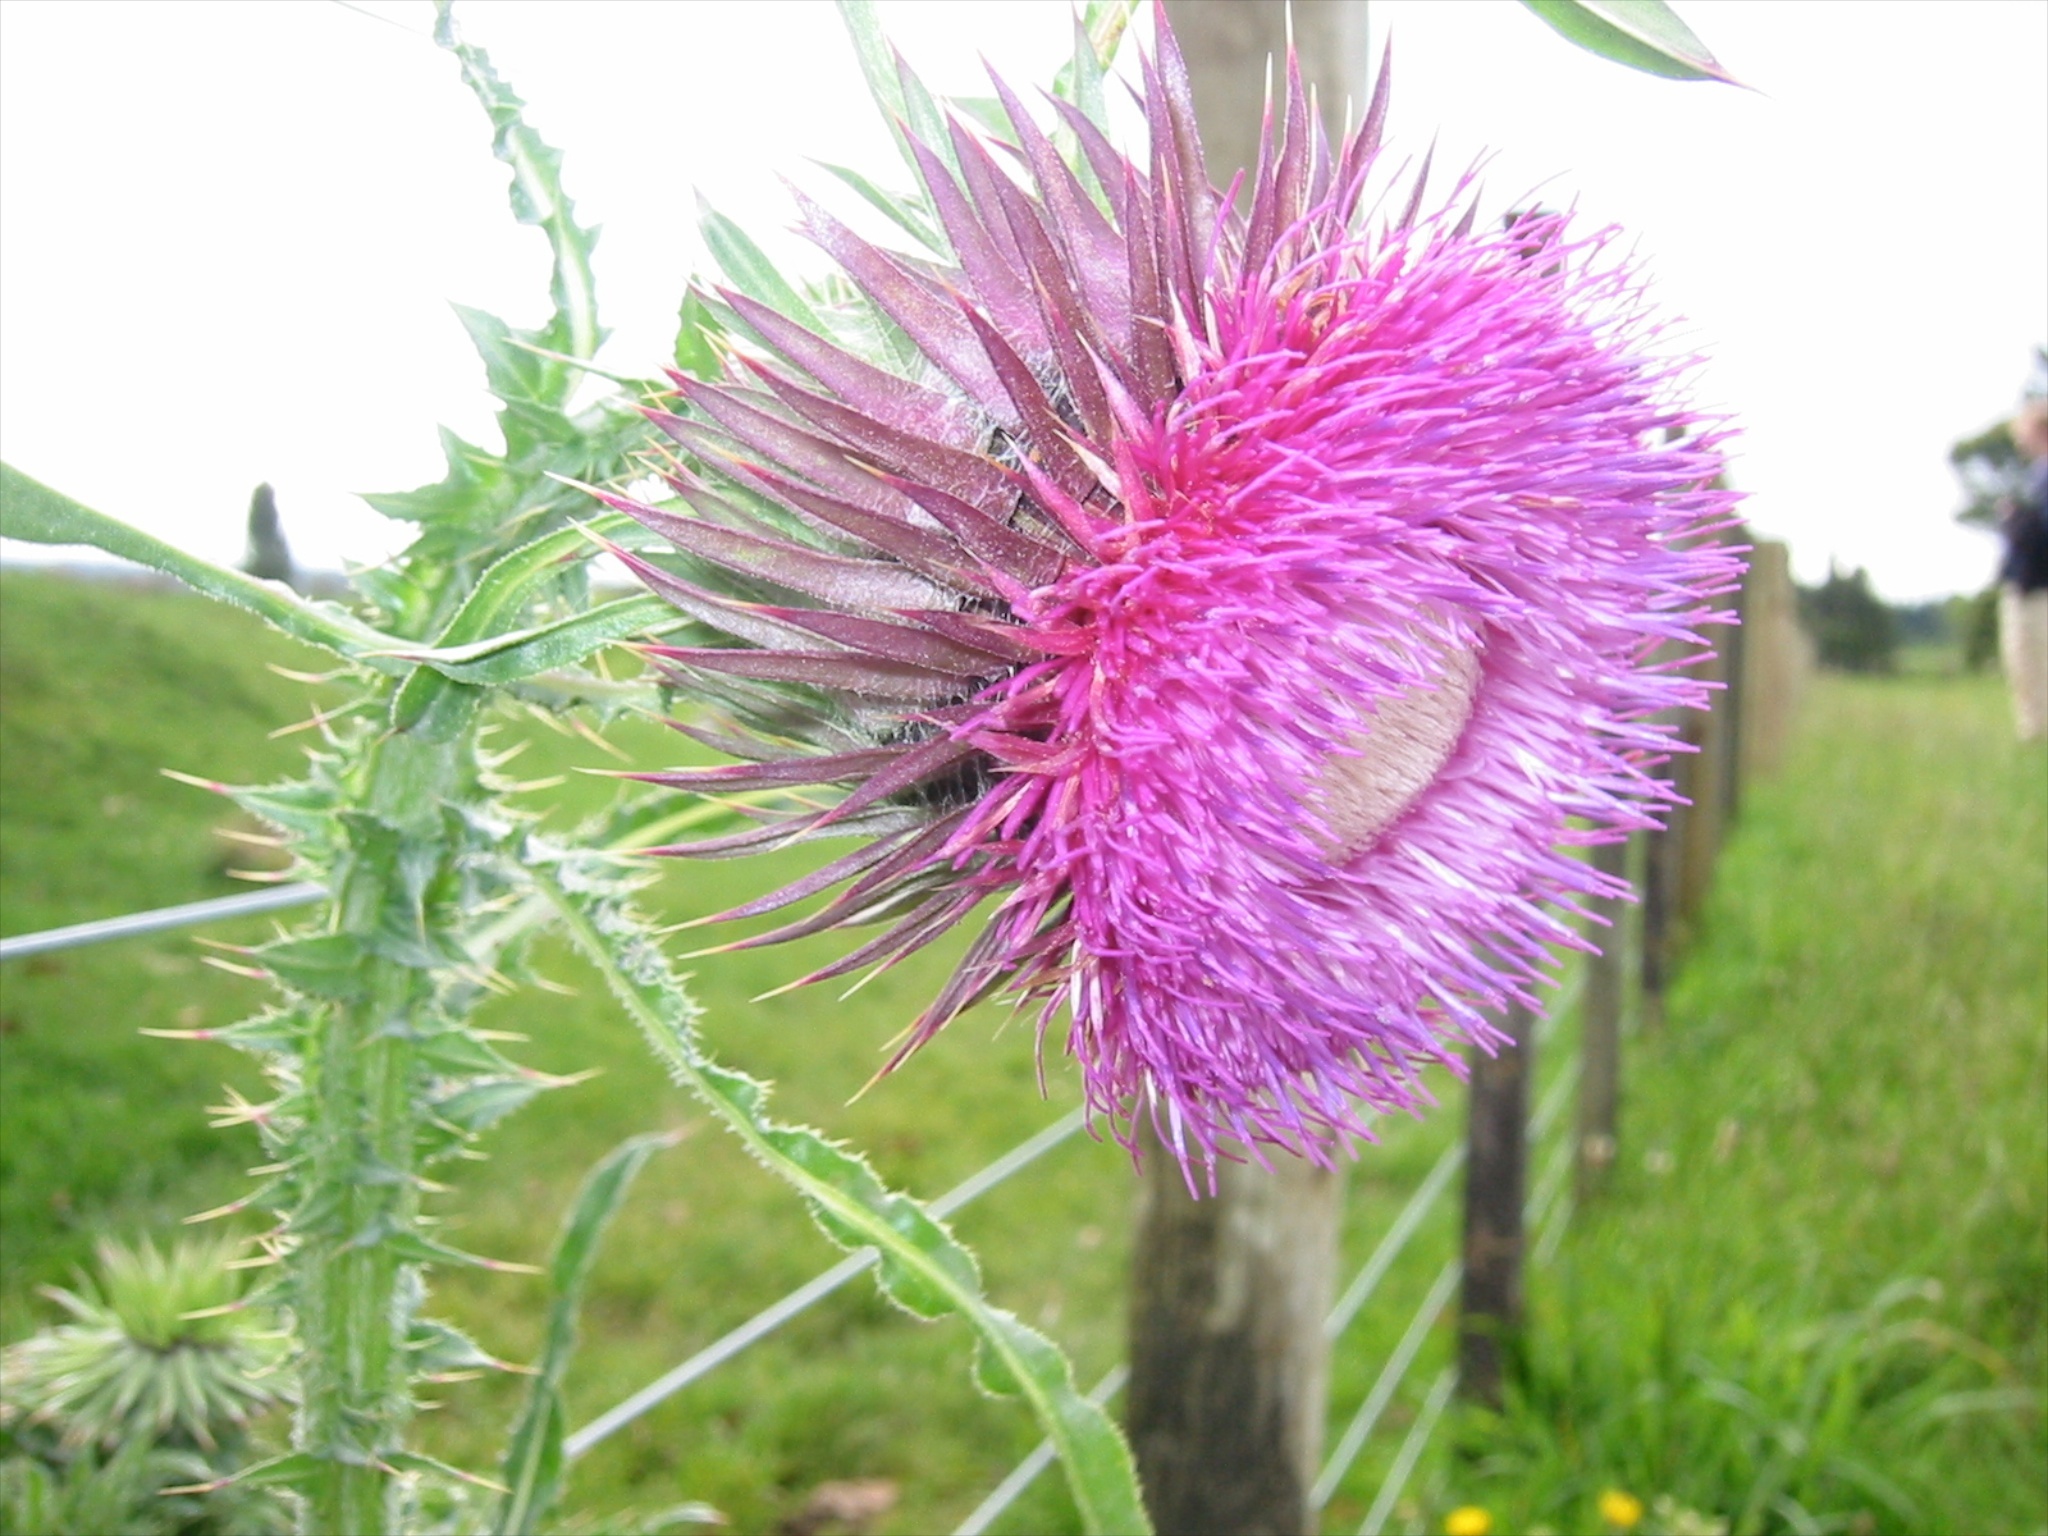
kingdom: Plantae
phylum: Tracheophyta
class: Magnoliopsida
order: Asterales
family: Asteraceae
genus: Carduus
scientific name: Carduus nutans
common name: Musk thistle
